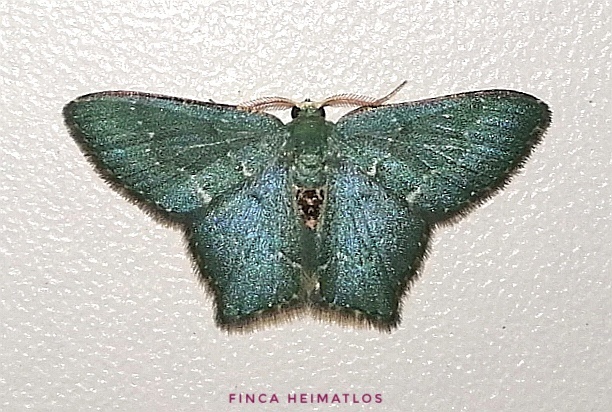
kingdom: Animalia
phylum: Arthropoda
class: Insecta
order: Lepidoptera
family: Geometridae
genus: Chloropteryx
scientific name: Chloropteryx nordicaria
